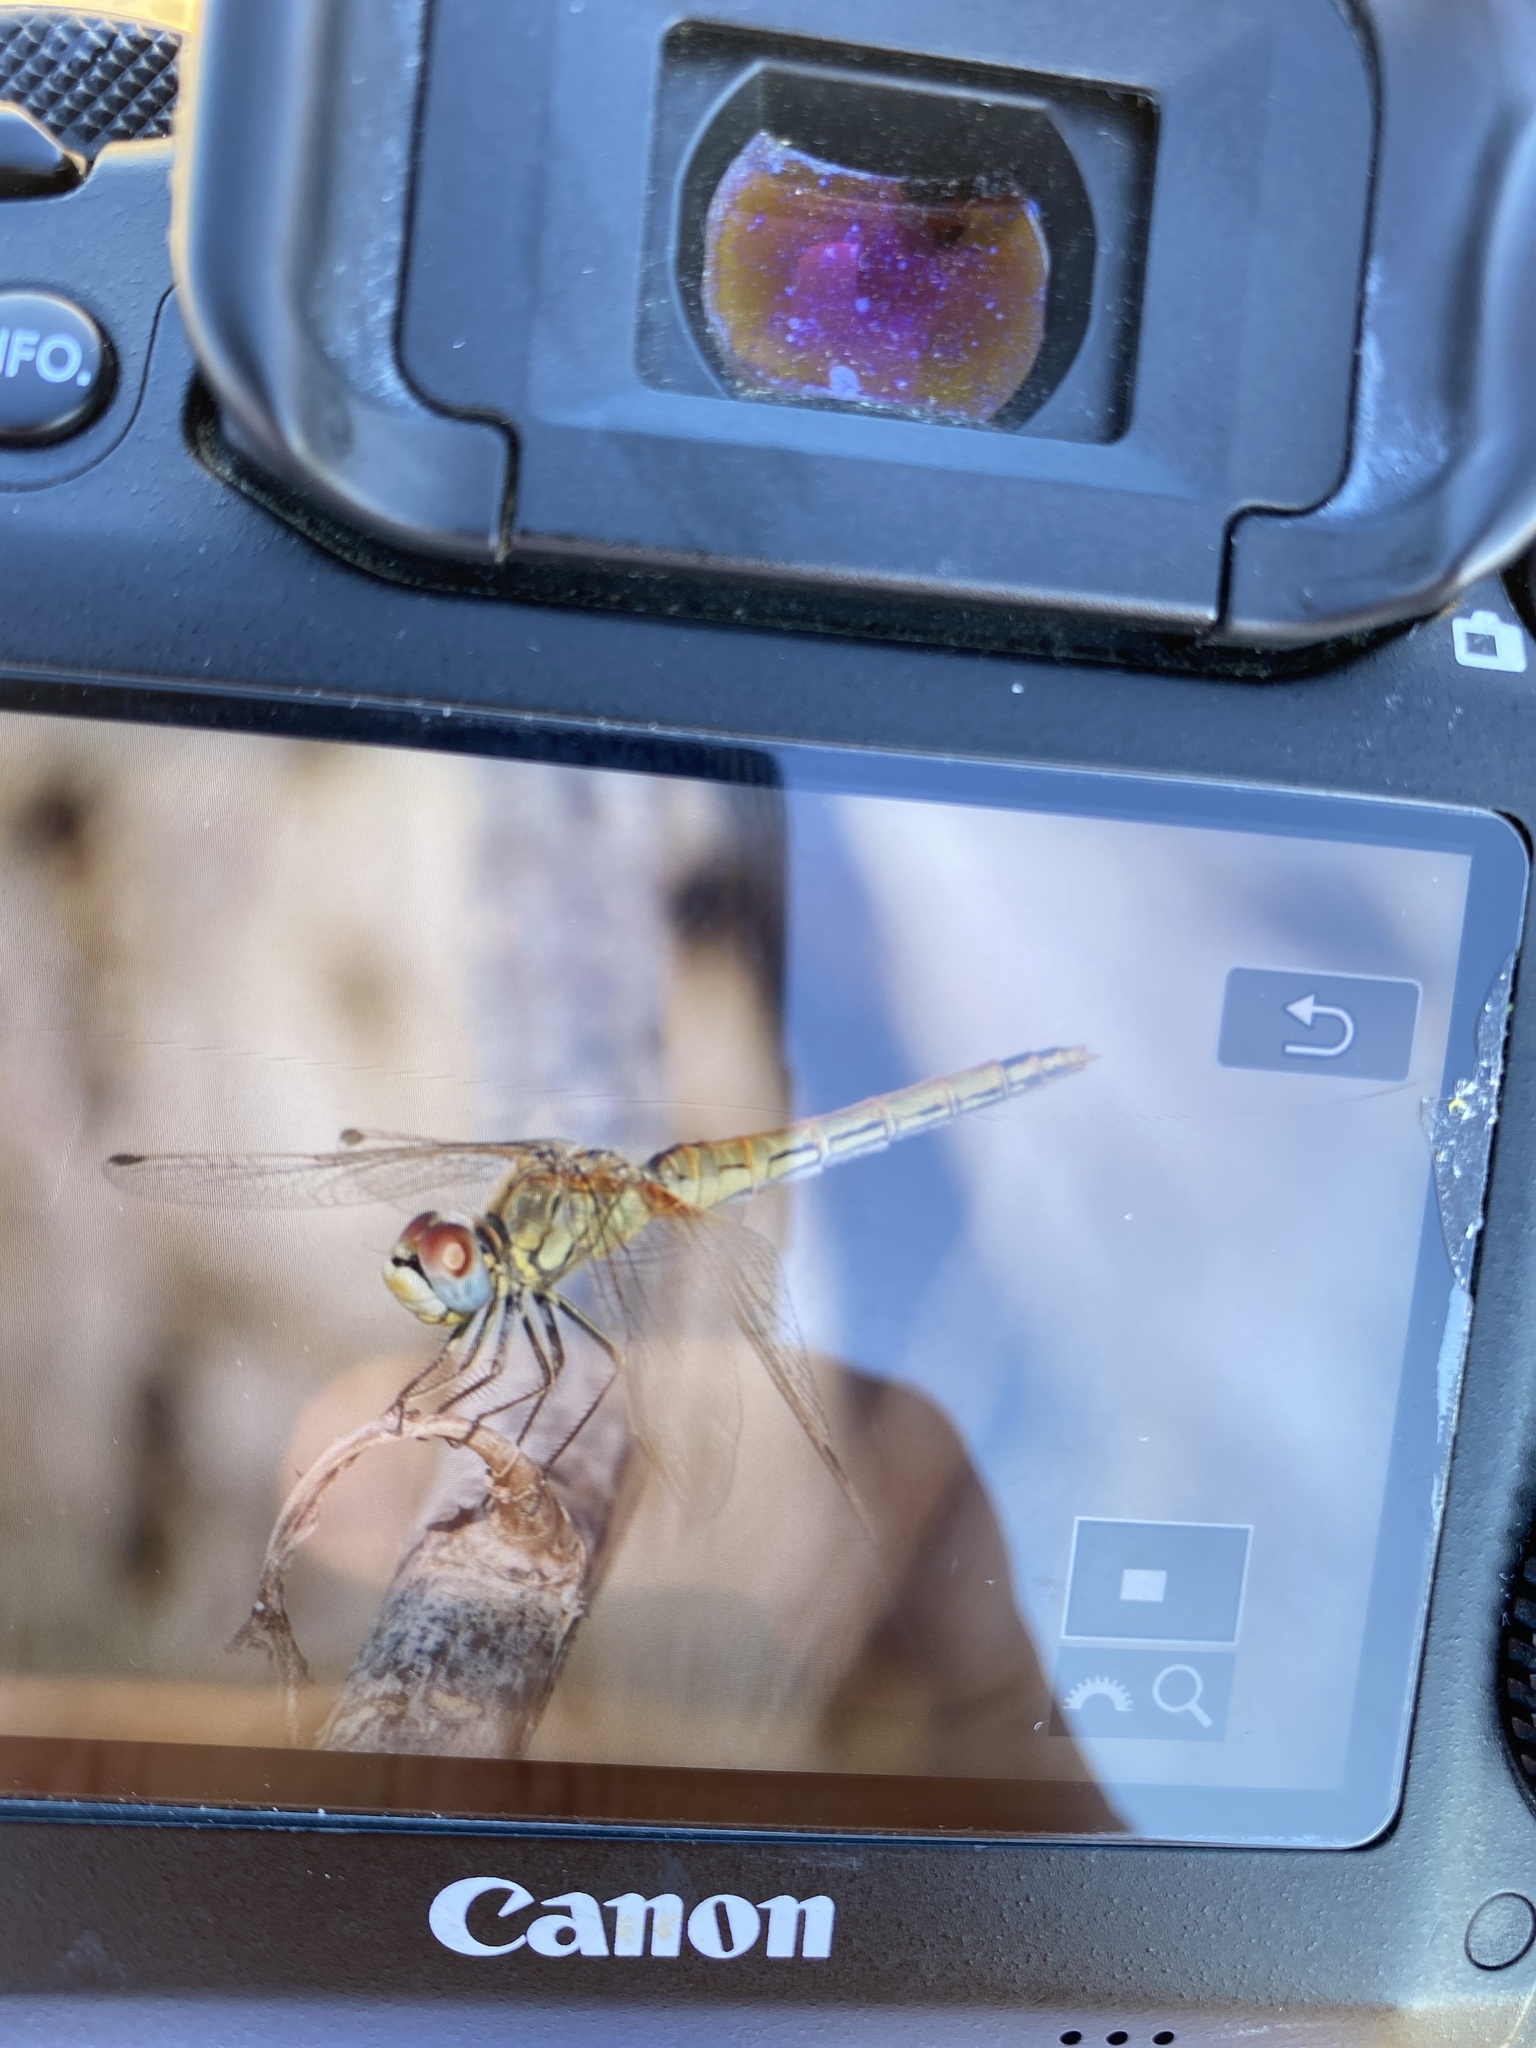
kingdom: Animalia
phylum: Arthropoda
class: Insecta
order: Odonata
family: Libellulidae
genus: Sympetrum
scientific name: Sympetrum fonscolombii
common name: Red-veined darter
